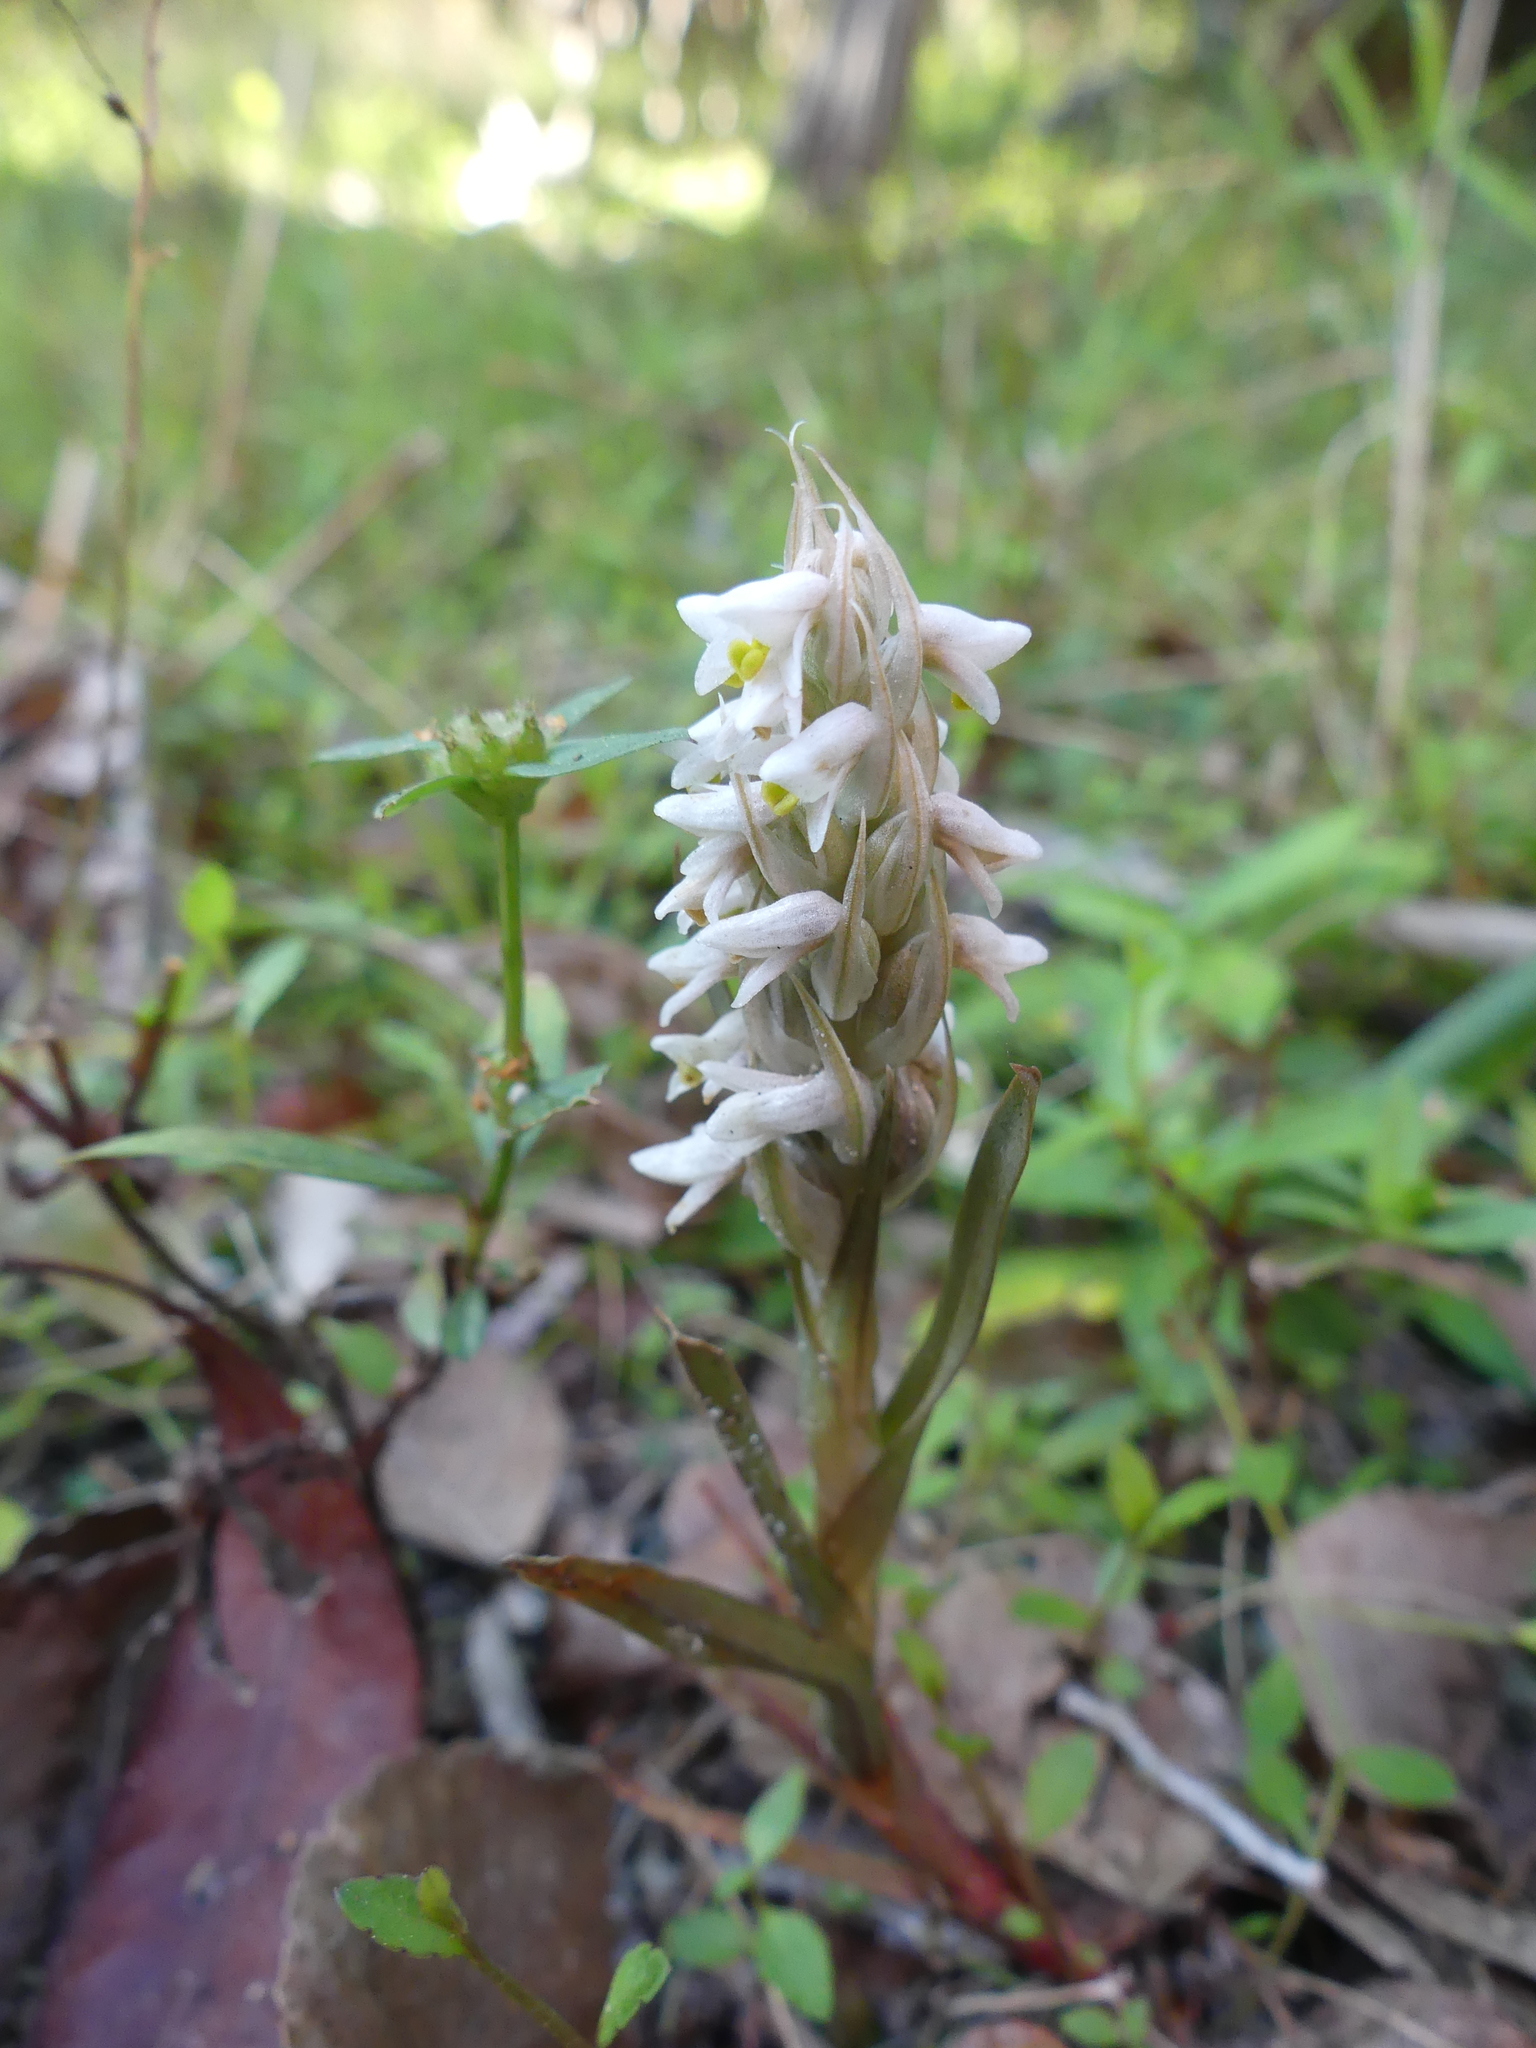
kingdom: Plantae
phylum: Tracheophyta
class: Liliopsida
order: Asparagales
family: Orchidaceae
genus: Zeuxine
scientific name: Zeuxine strateumatica
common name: Soldier's orchid
